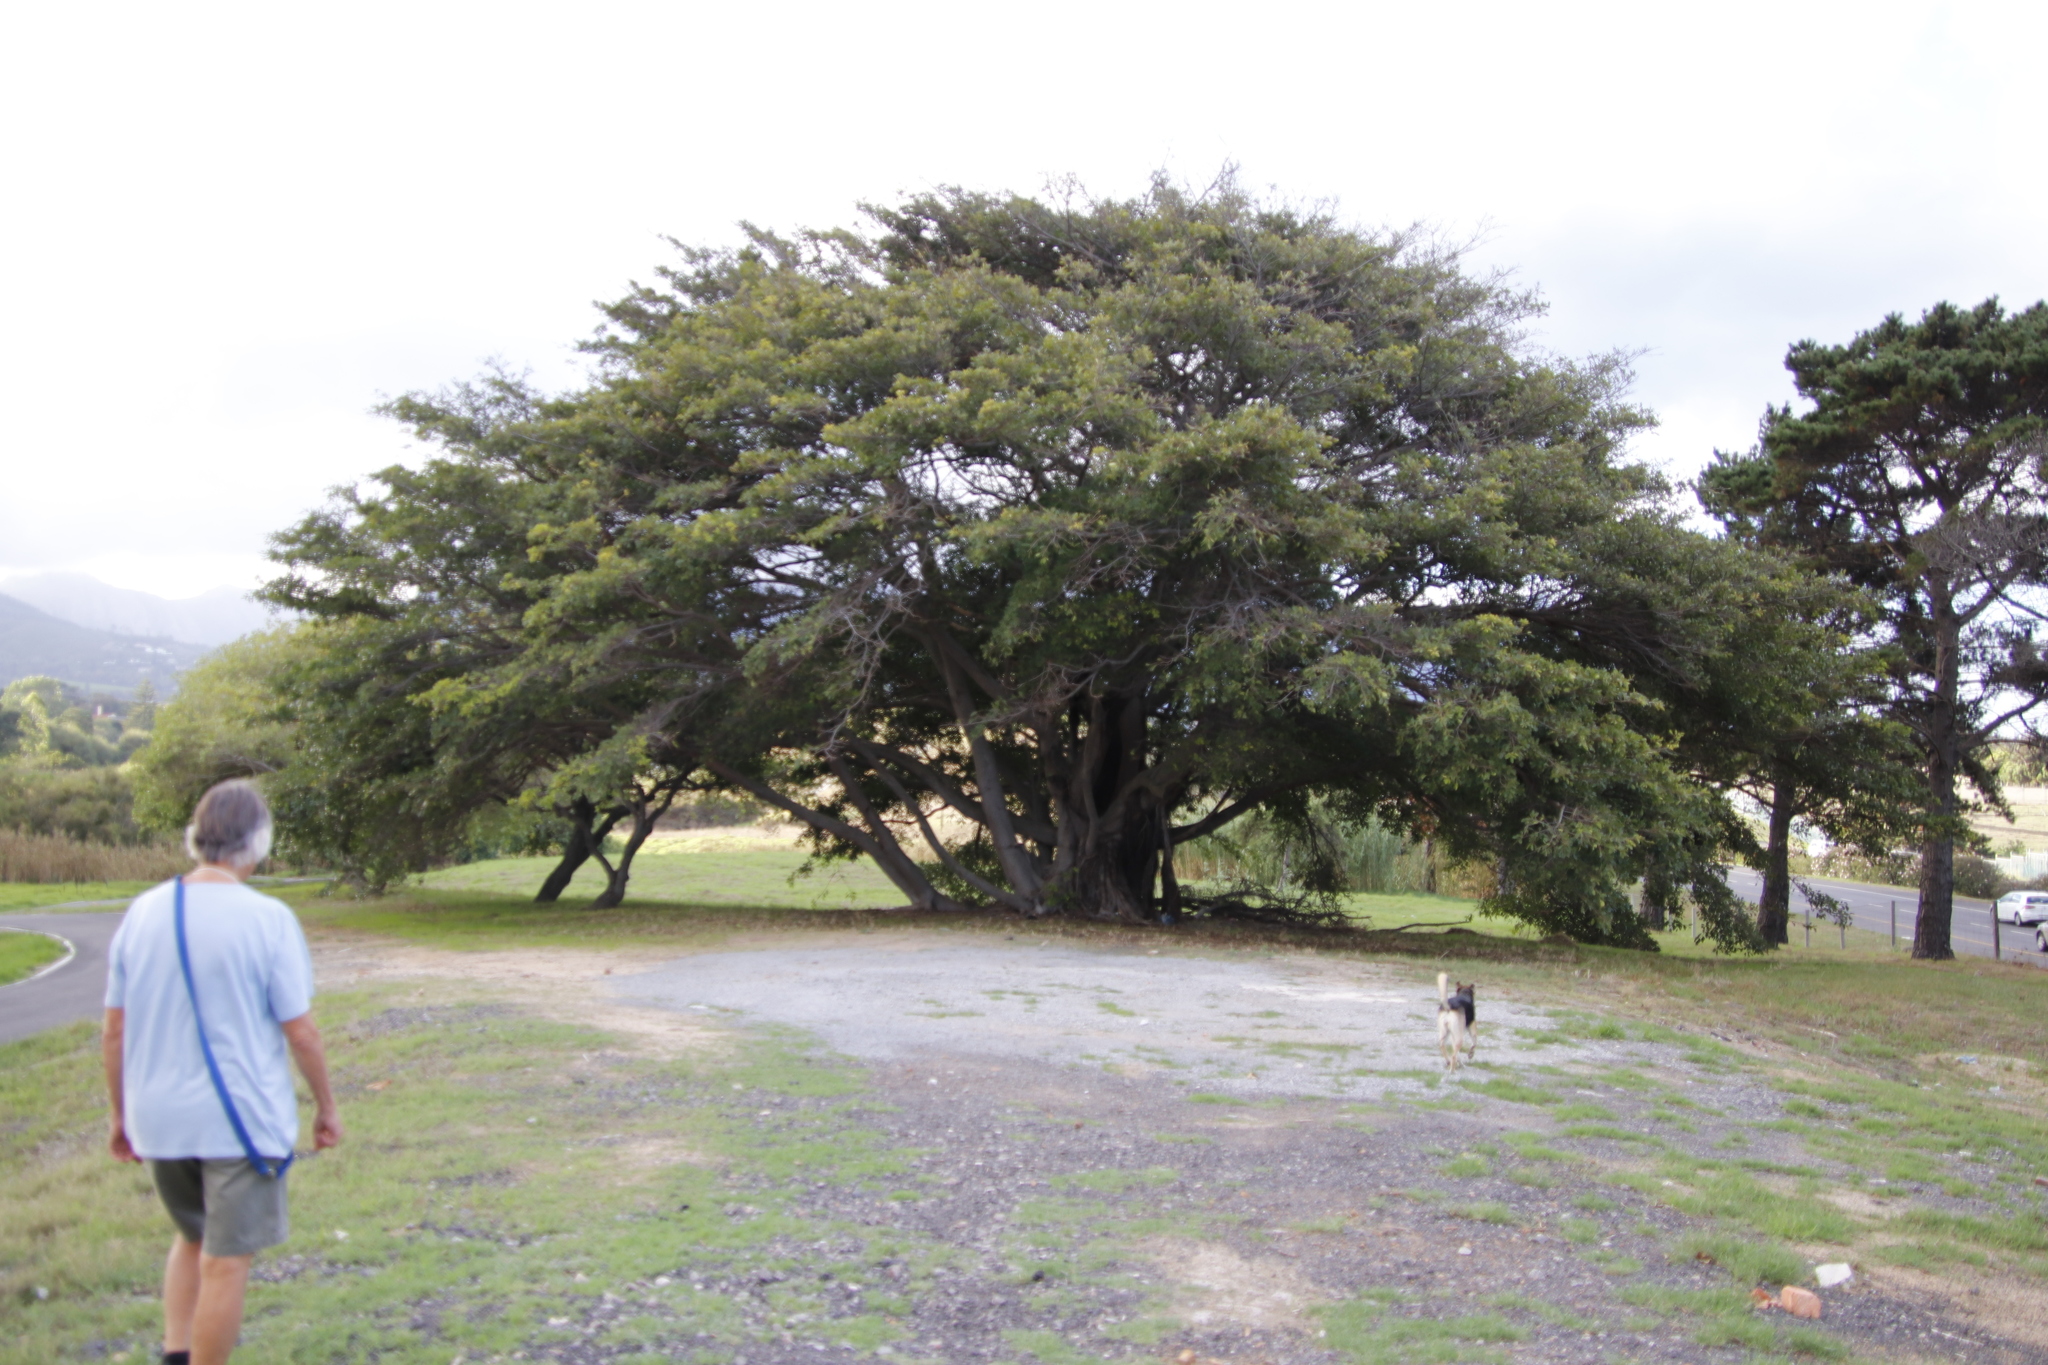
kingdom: Plantae
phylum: Tracheophyta
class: Magnoliopsida
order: Rosales
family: Moraceae
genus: Ficus
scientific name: Ficus thonningii
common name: Fig
